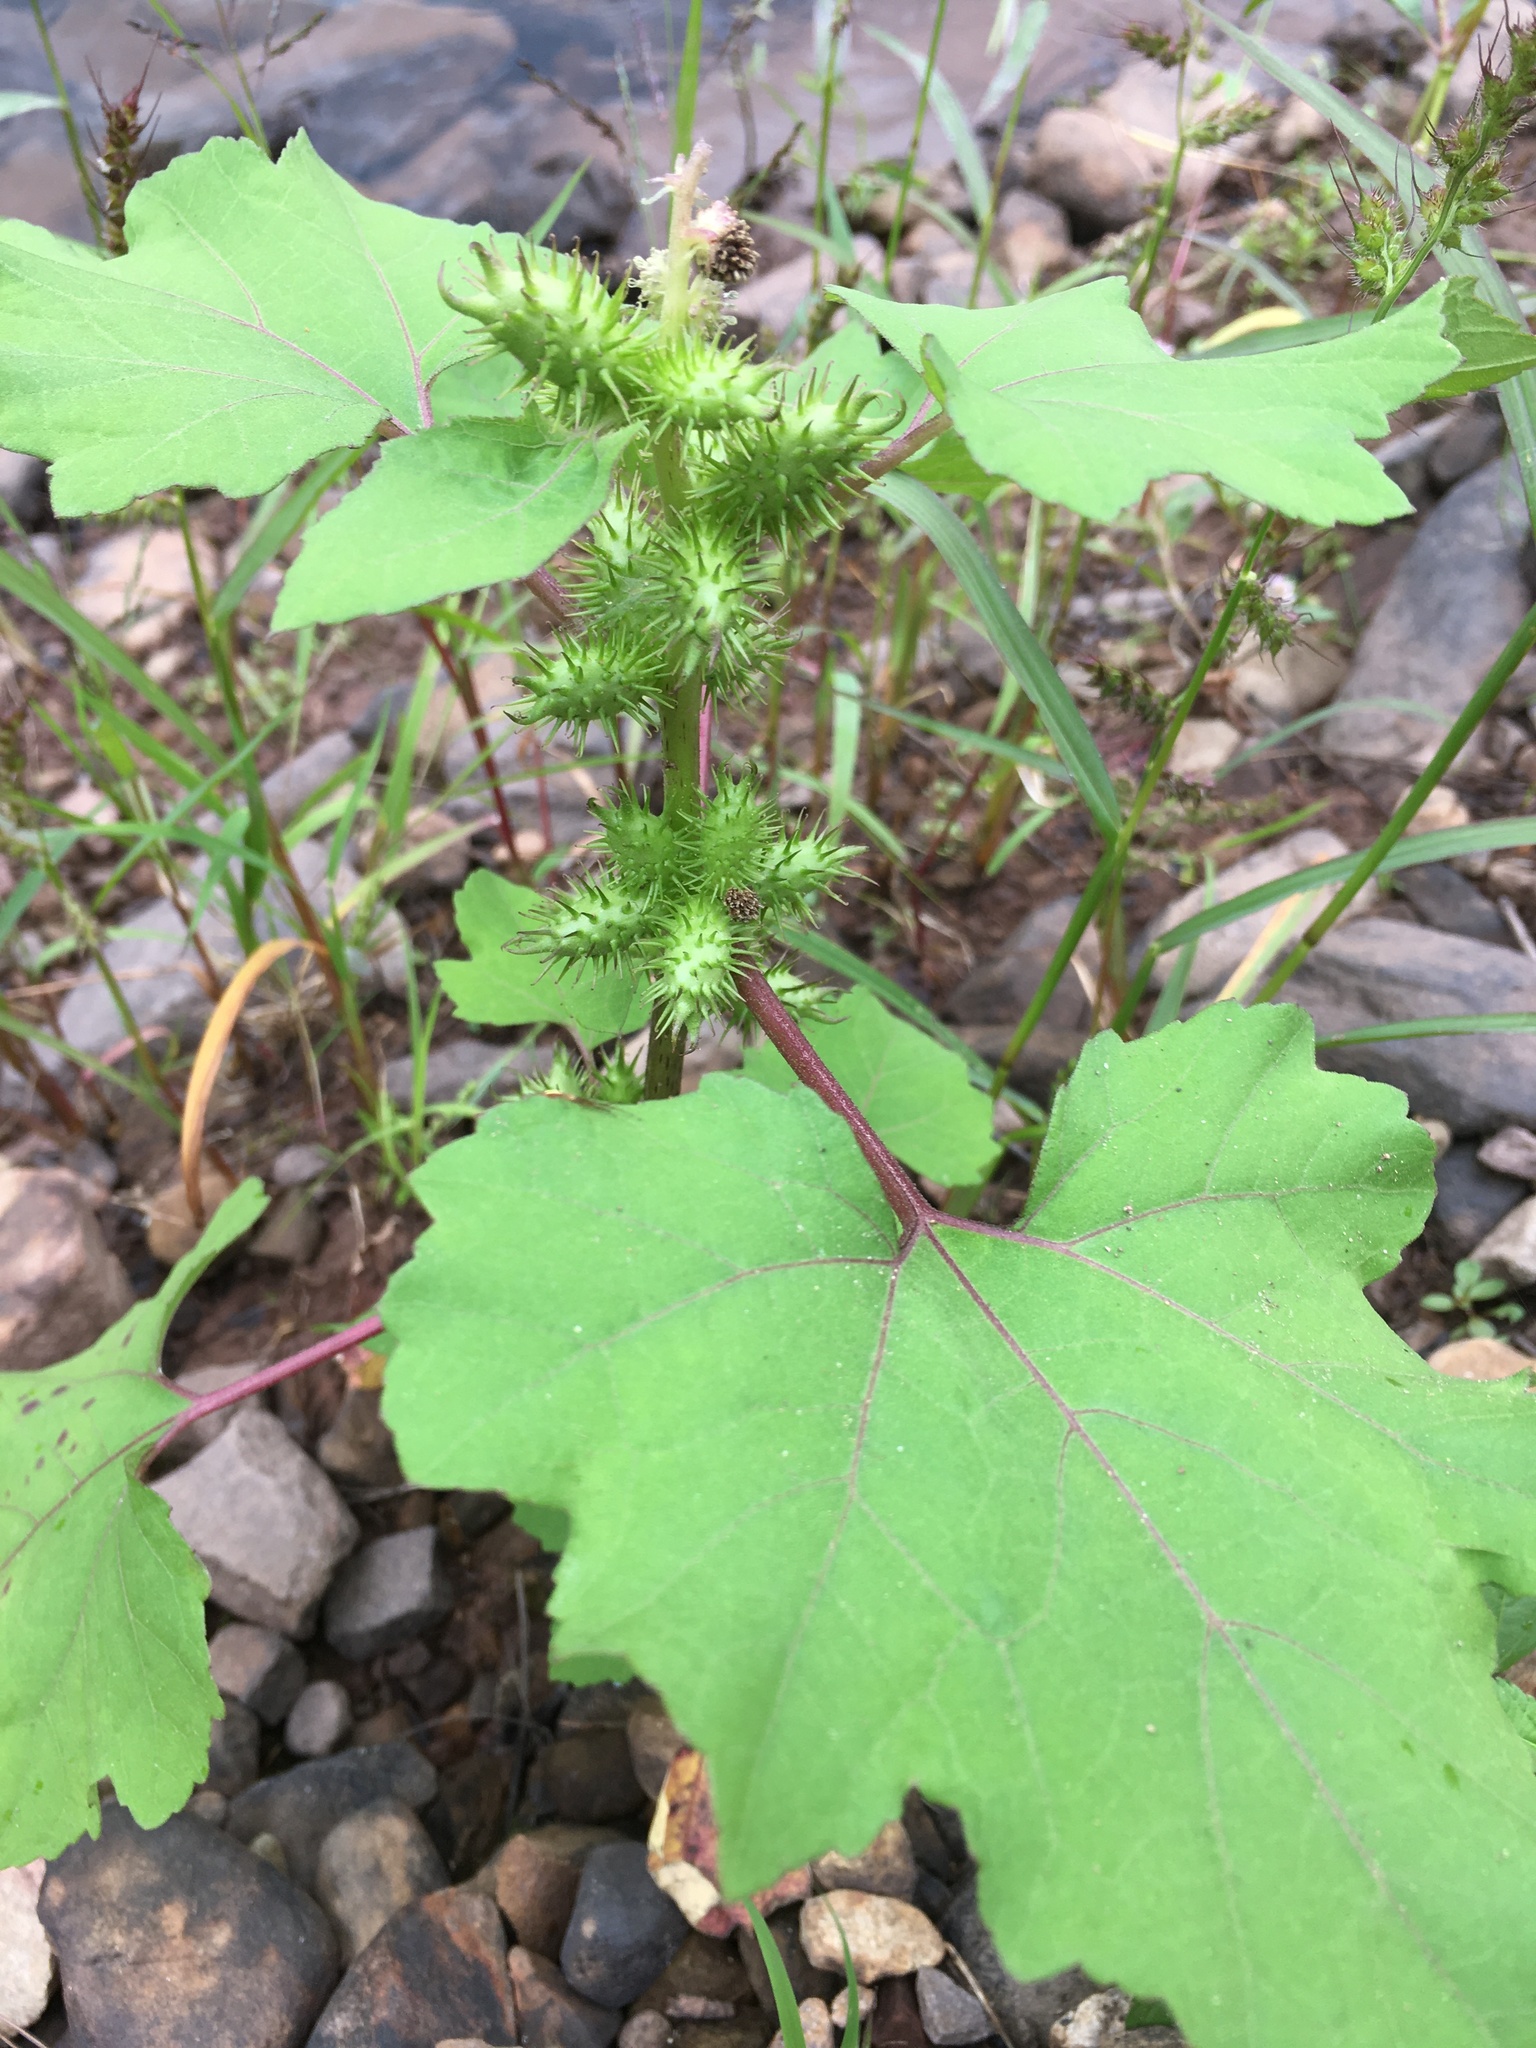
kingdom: Plantae
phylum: Tracheophyta
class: Magnoliopsida
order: Asterales
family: Asteraceae
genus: Xanthium
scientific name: Xanthium strumarium
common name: Rough cocklebur
